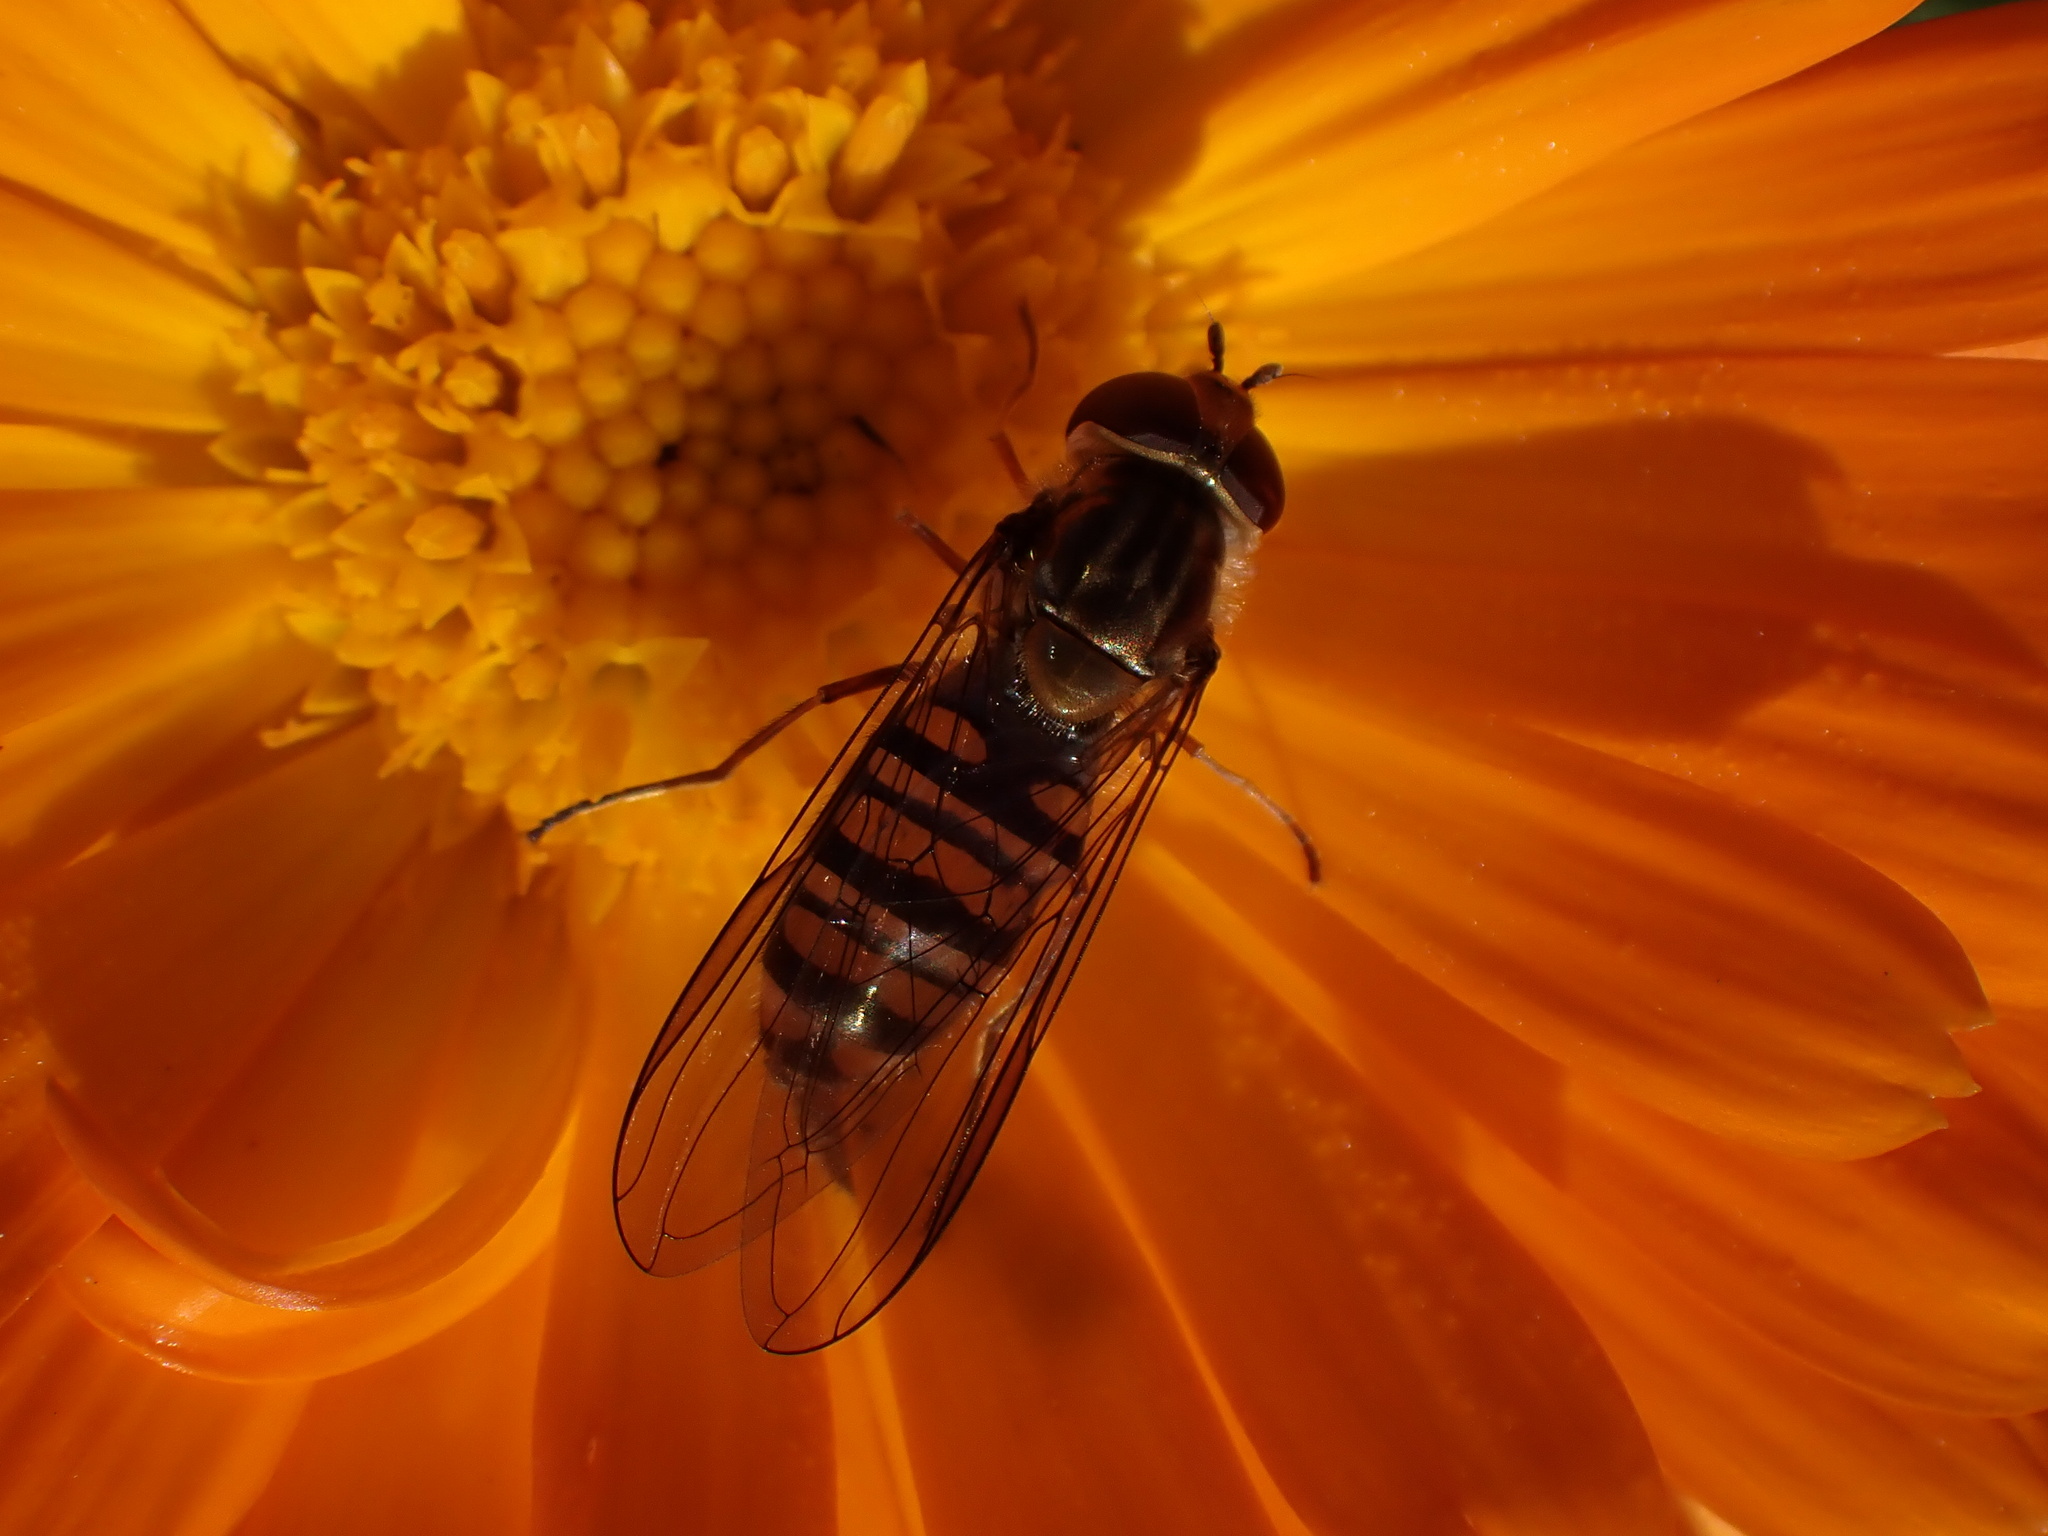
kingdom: Animalia
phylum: Arthropoda
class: Insecta
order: Diptera
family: Syrphidae
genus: Episyrphus
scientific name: Episyrphus balteatus
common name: Marmalade hoverfly
